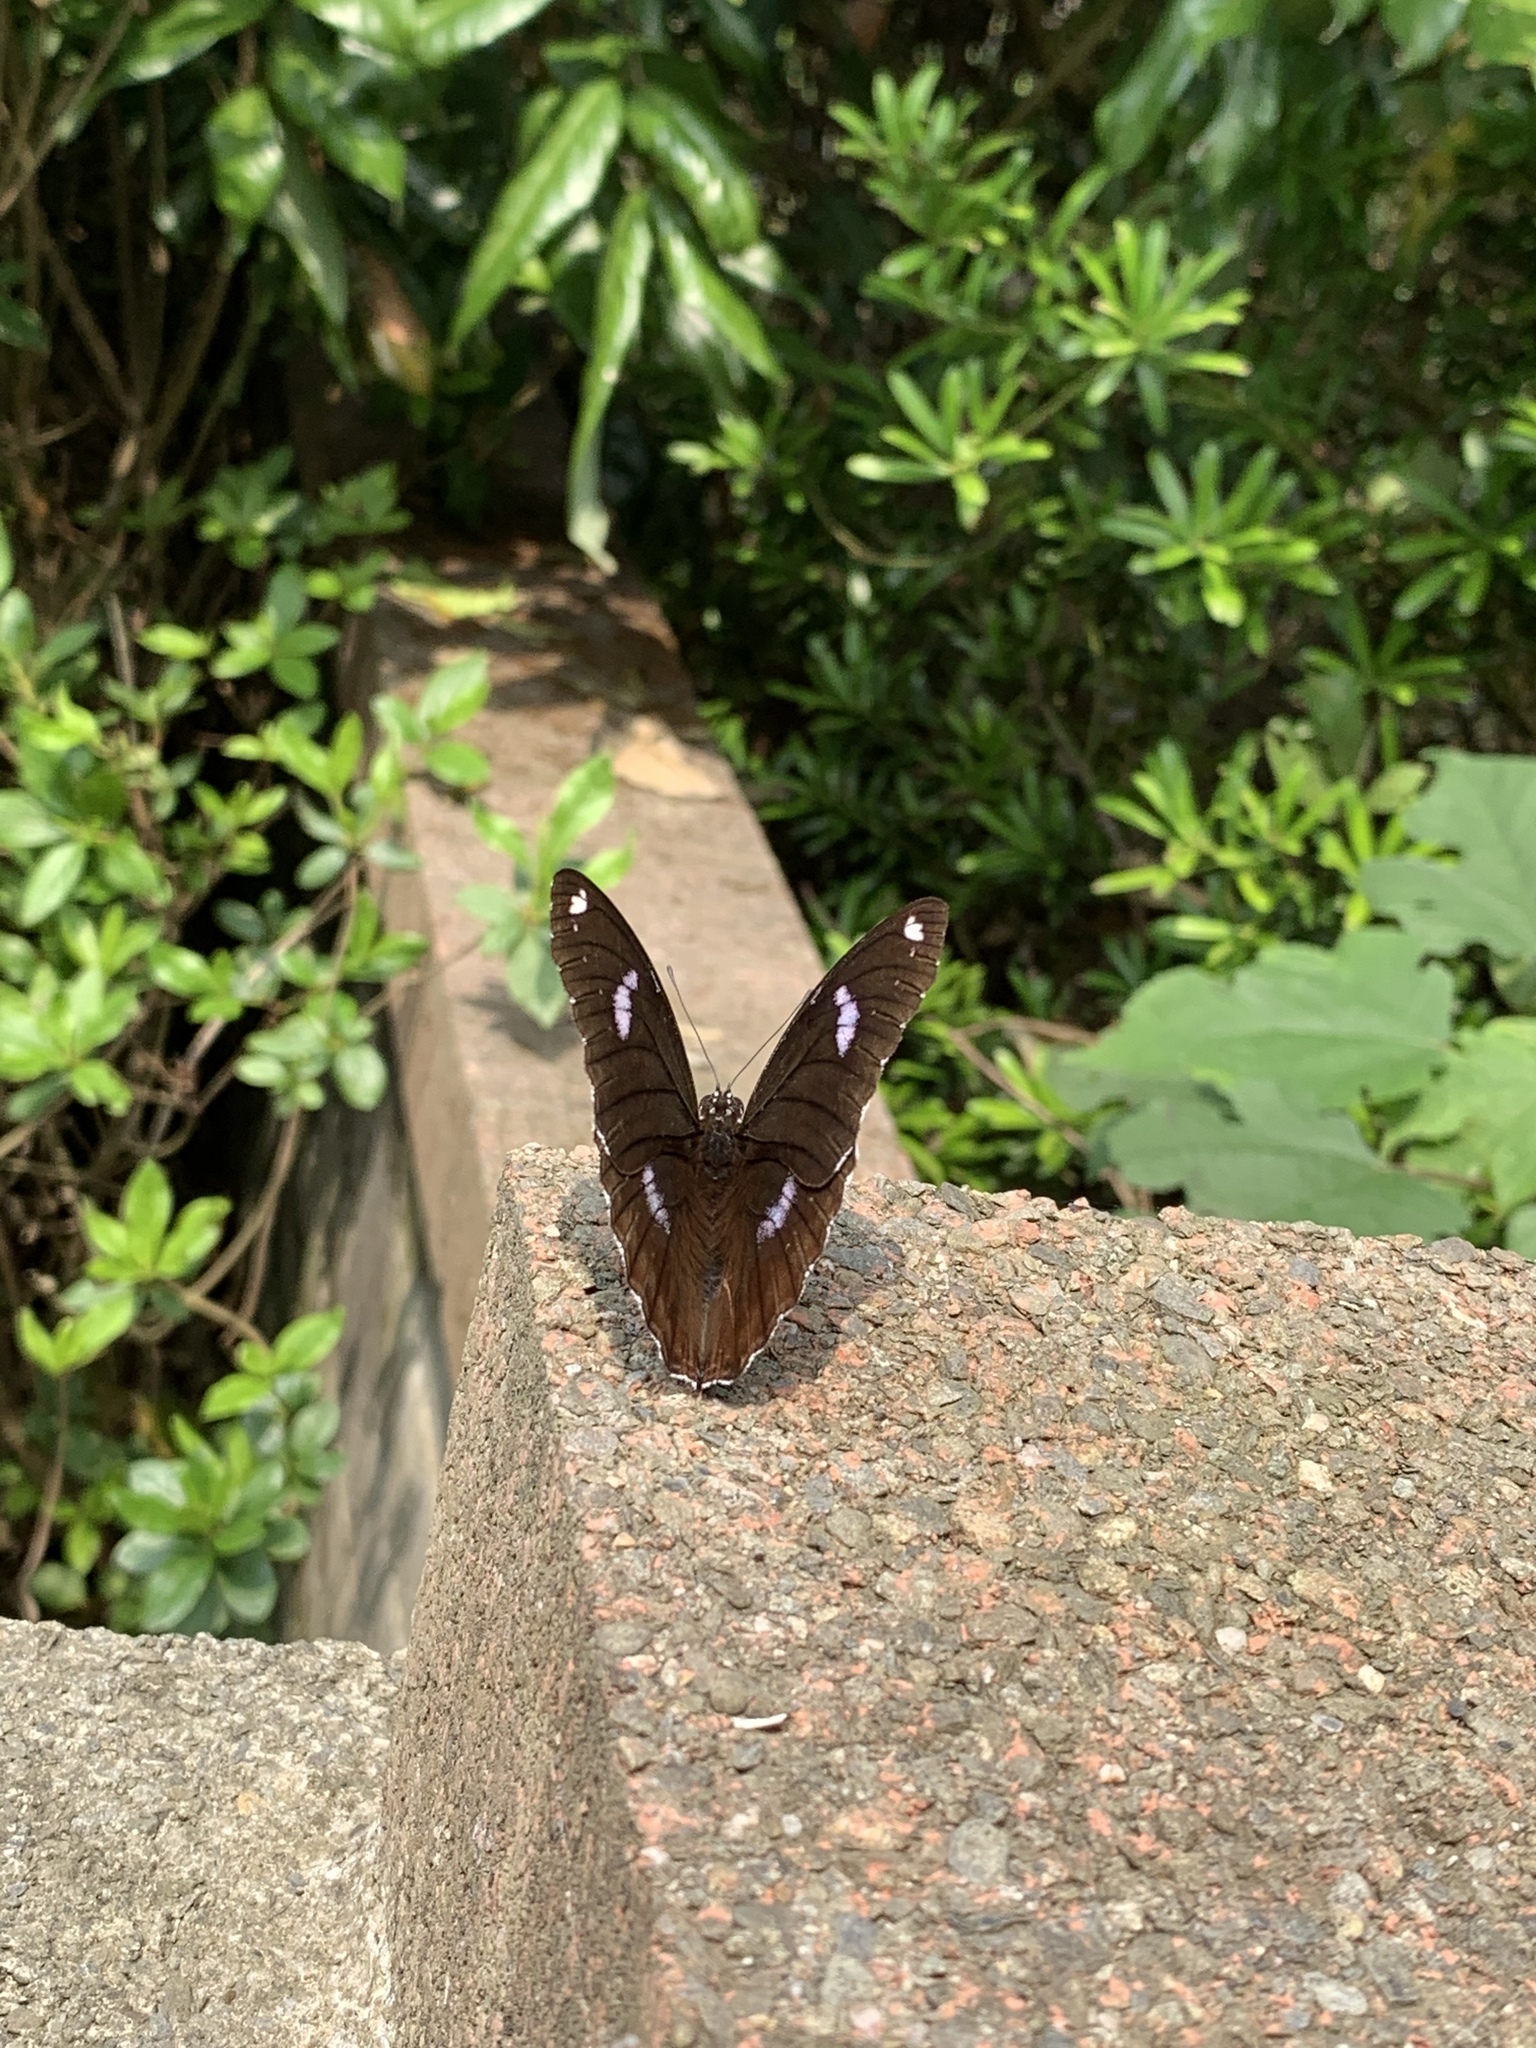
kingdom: Animalia
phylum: Arthropoda
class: Insecta
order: Lepidoptera
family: Nymphalidae
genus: Hypolimnas
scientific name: Hypolimnas bolina
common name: Great eggfly
